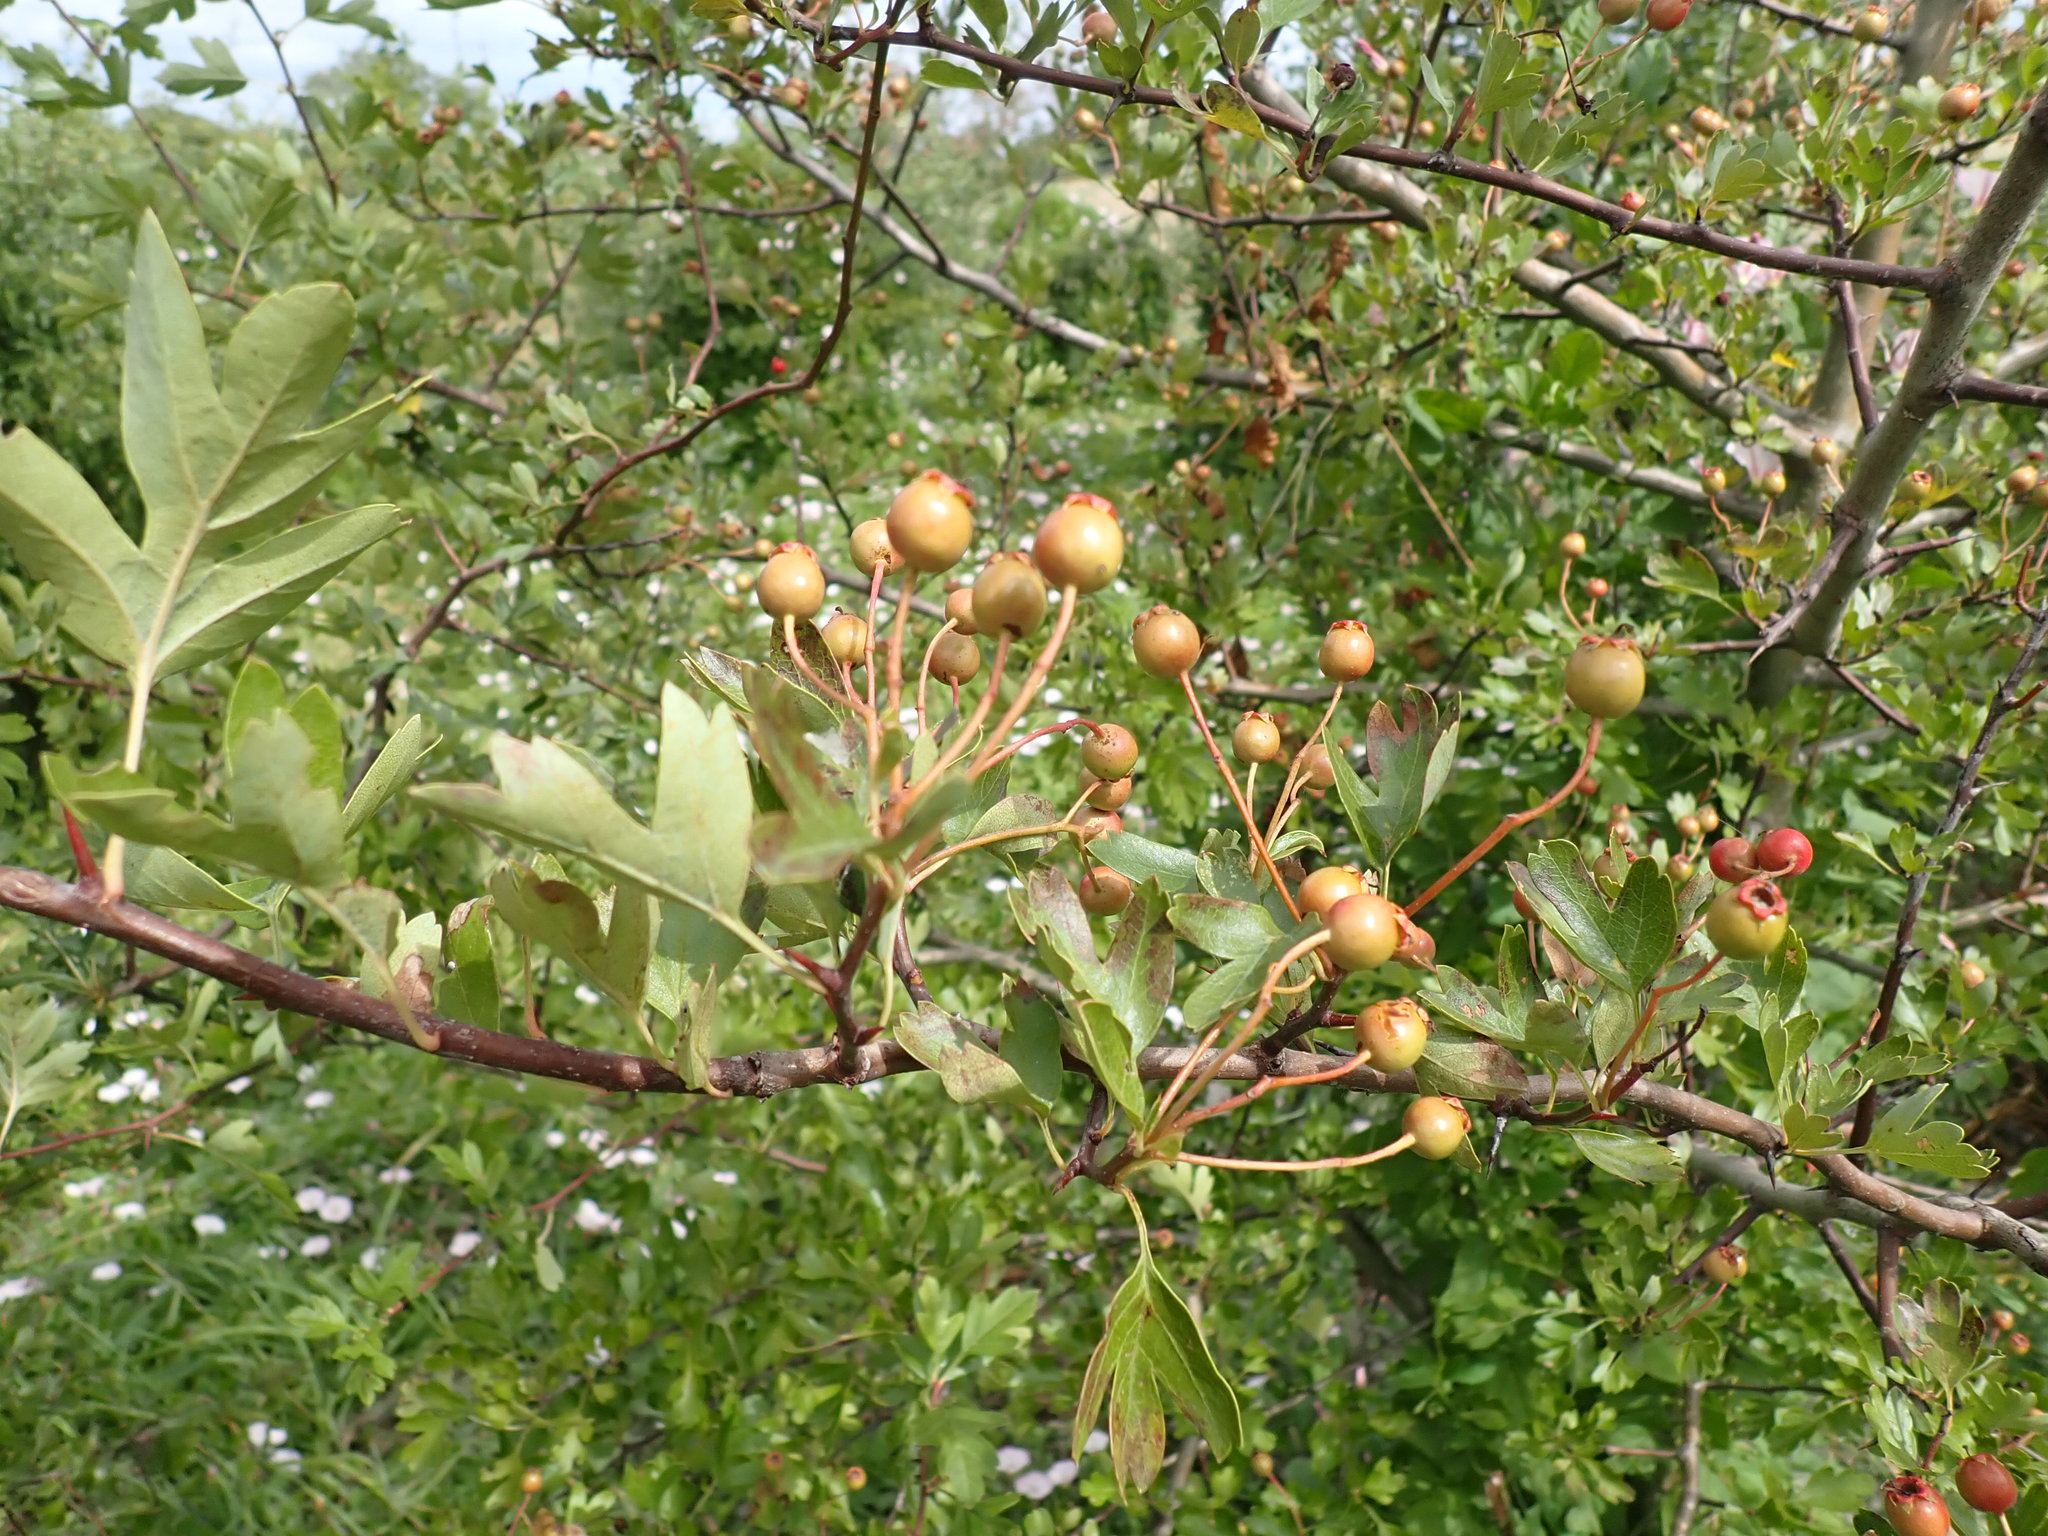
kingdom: Plantae
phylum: Tracheophyta
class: Magnoliopsida
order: Rosales
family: Rosaceae
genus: Crataegus
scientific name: Crataegus monogyna
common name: Hawthorn
